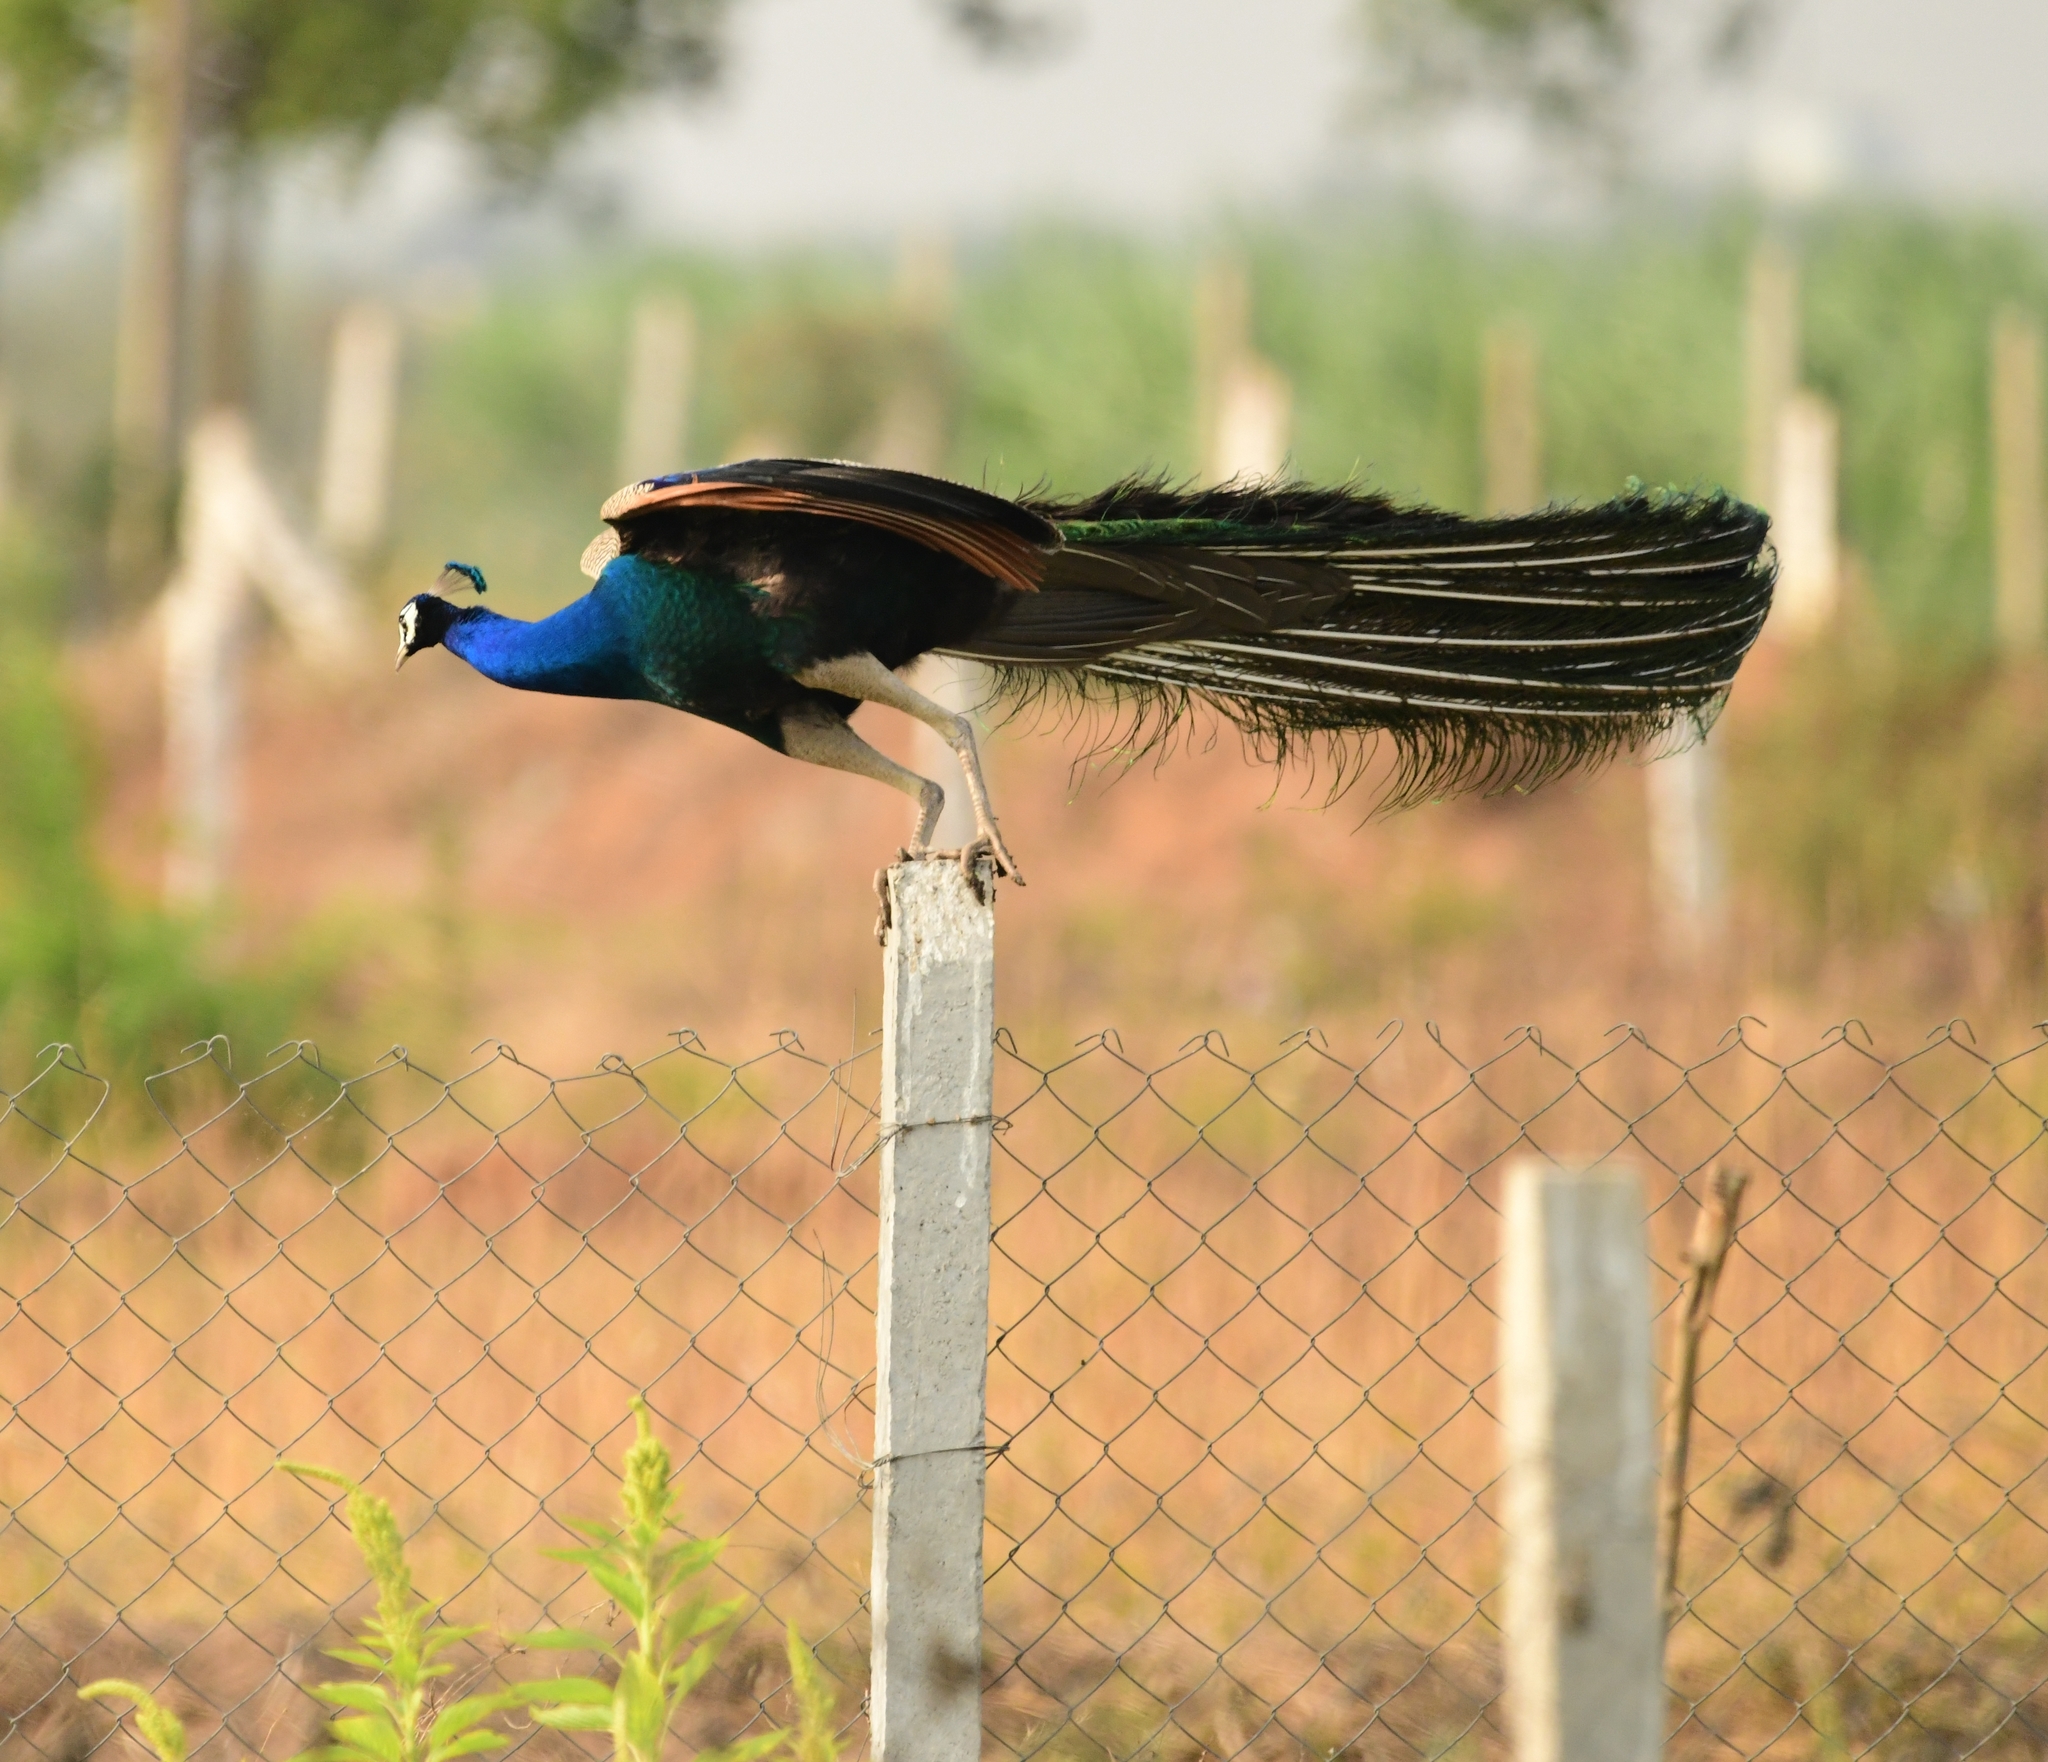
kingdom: Animalia
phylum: Chordata
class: Aves
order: Galliformes
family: Phasianidae
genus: Pavo
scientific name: Pavo cristatus
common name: Indian peafowl
